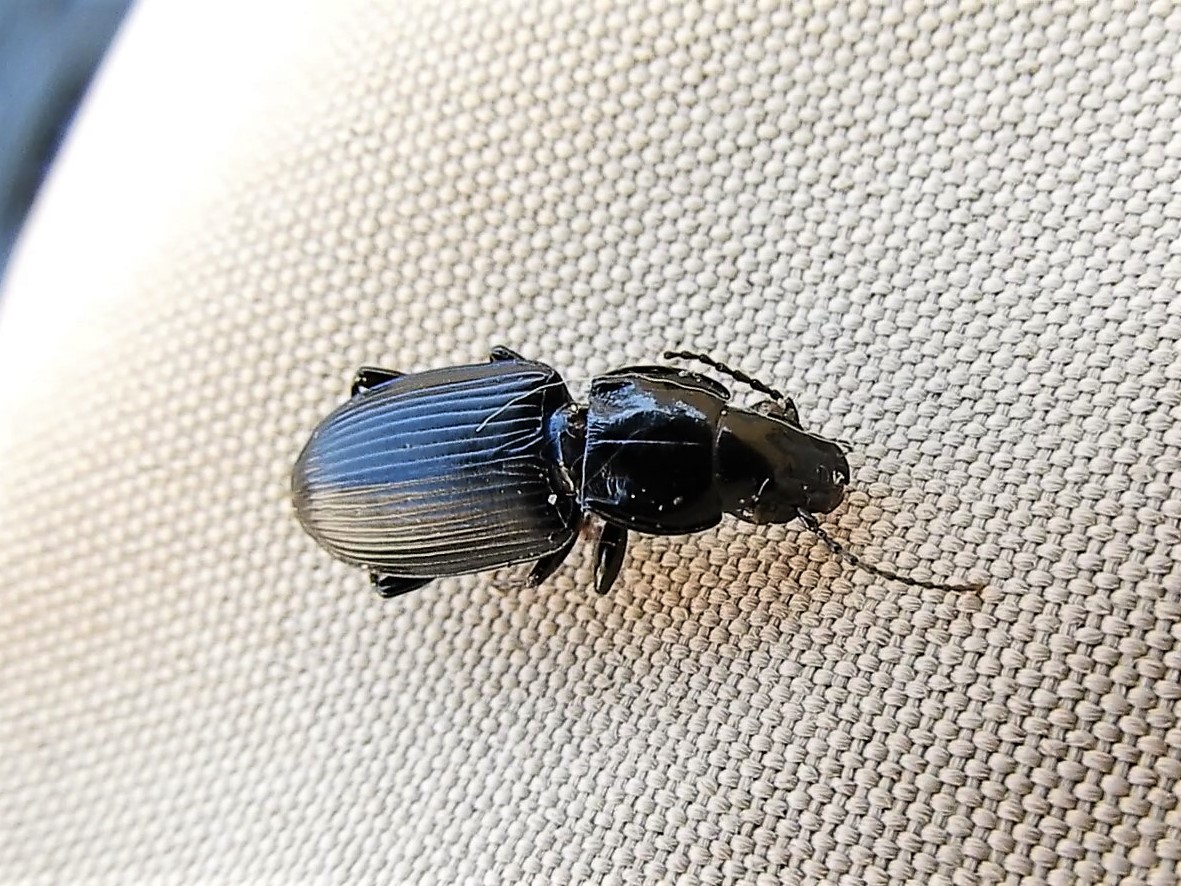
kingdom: Animalia
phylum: Arthropoda
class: Insecta
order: Coleoptera
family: Carabidae
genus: Pterostichus
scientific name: Pterostichus melanarius
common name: European dark harp ground beetle
